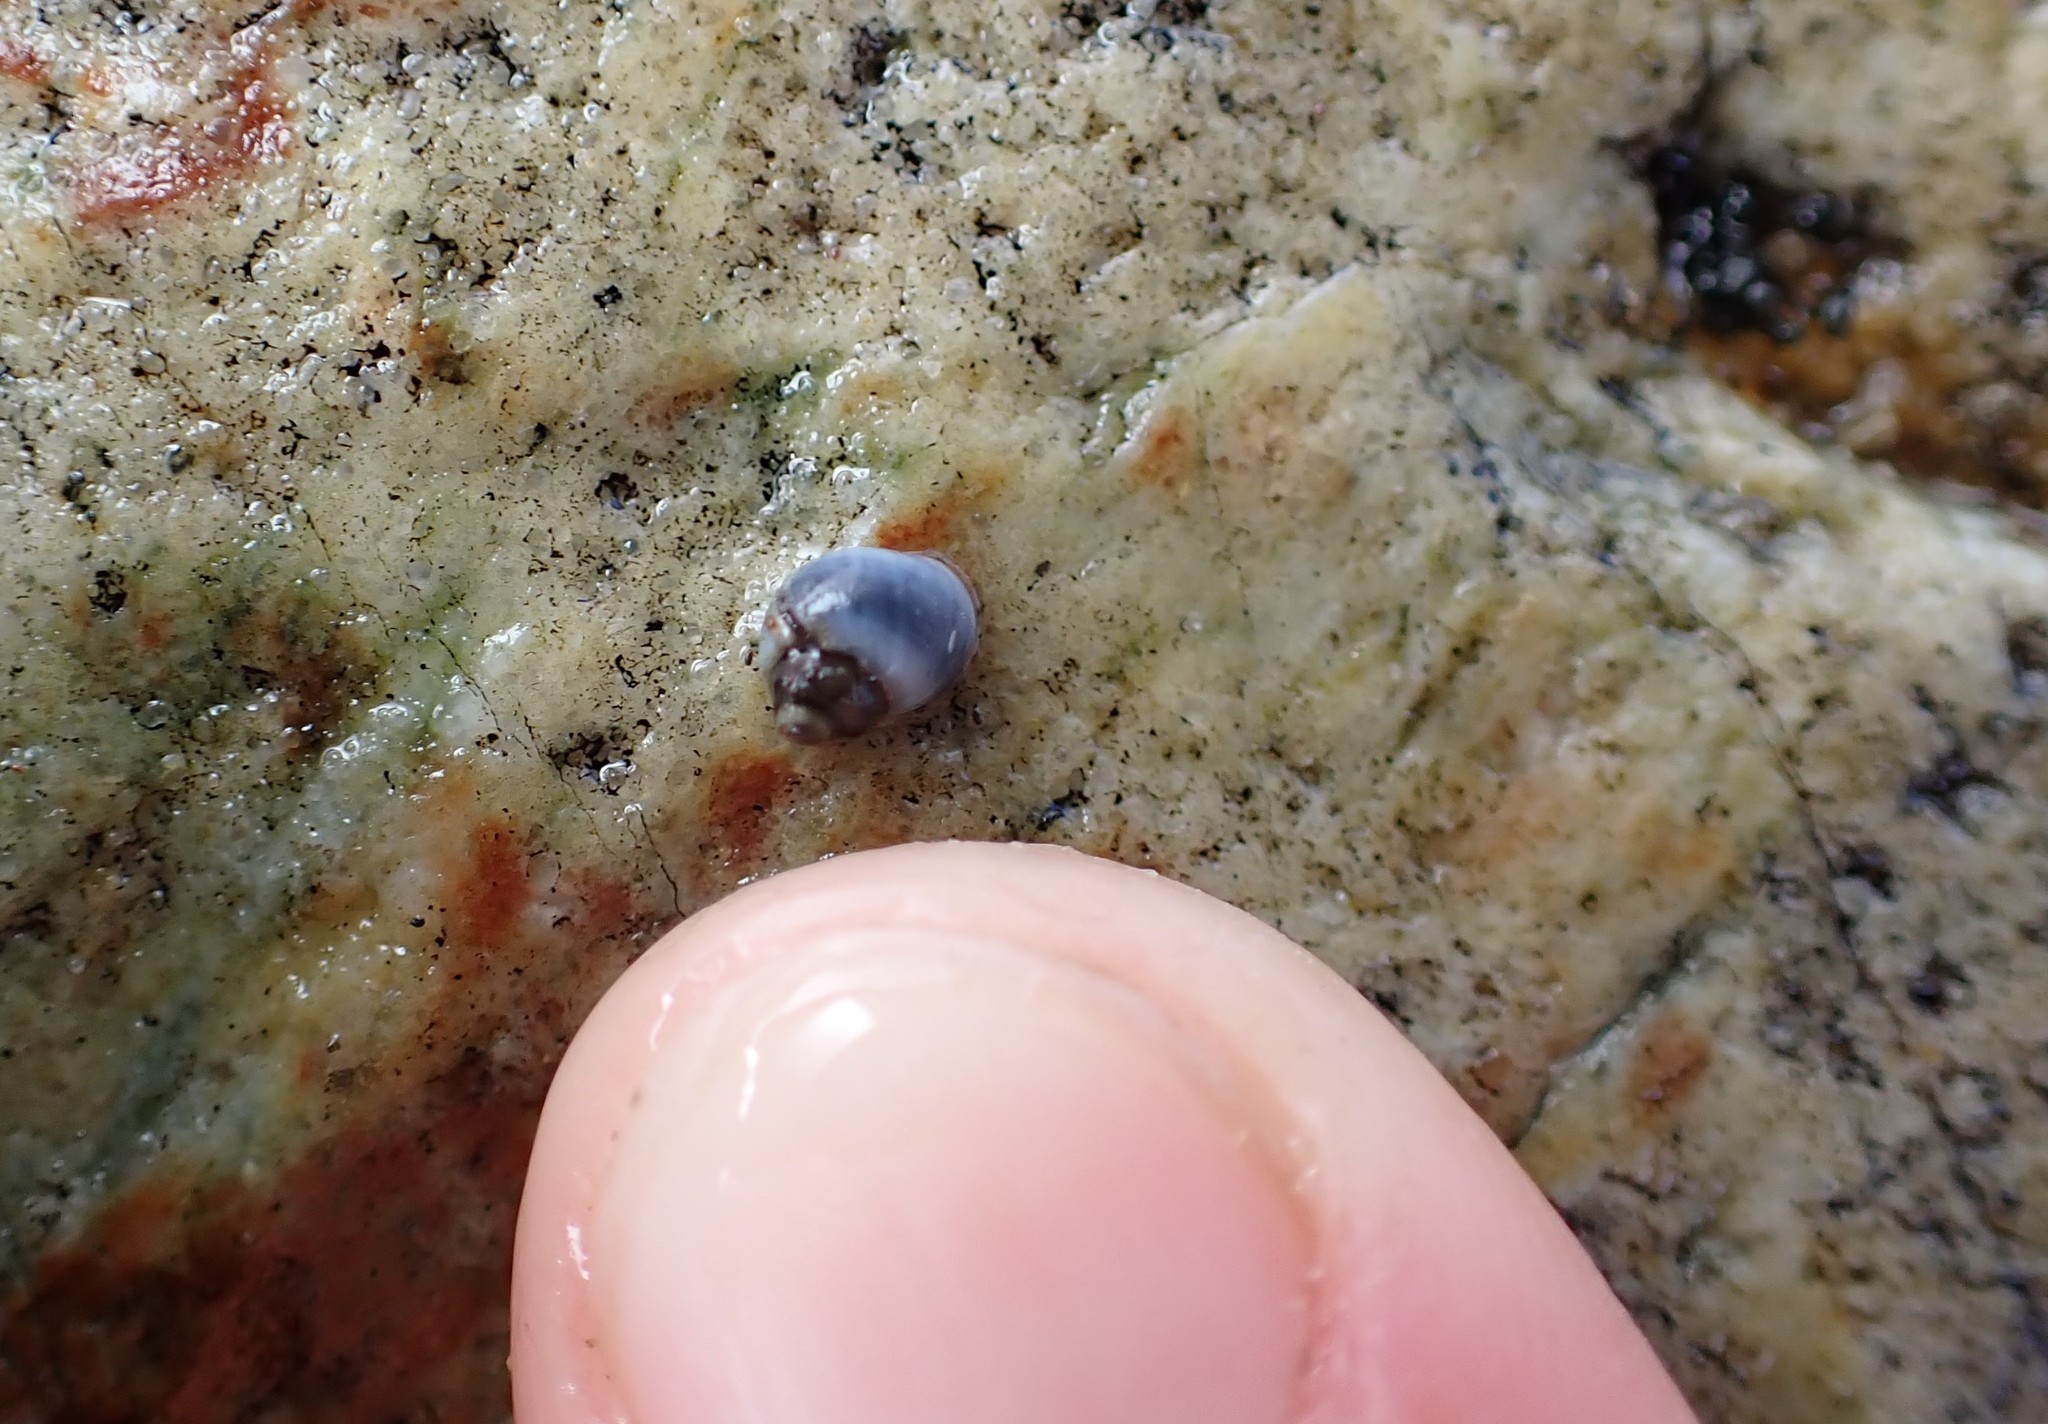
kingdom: Animalia
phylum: Mollusca
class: Gastropoda
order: Littorinimorpha
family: Littorinidae
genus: Austrolittorina
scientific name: Austrolittorina antipodum
